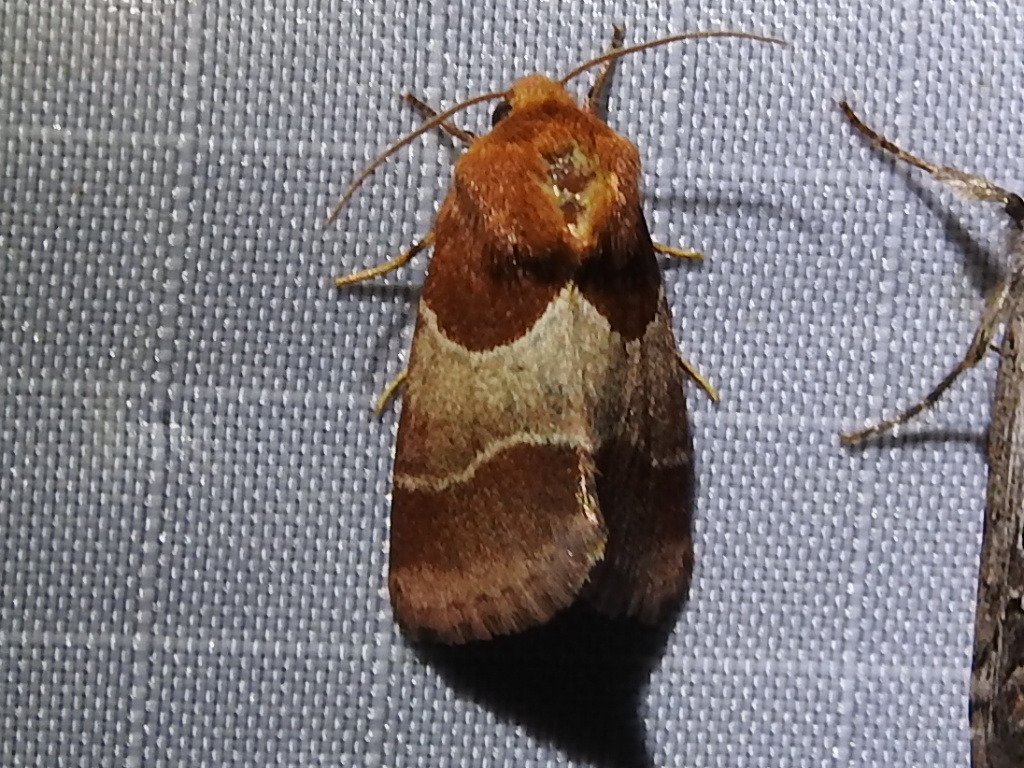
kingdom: Animalia
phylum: Arthropoda
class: Insecta
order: Lepidoptera
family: Noctuidae
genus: Schinia
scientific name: Schinia arcigera
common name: Arcigera flower moth
